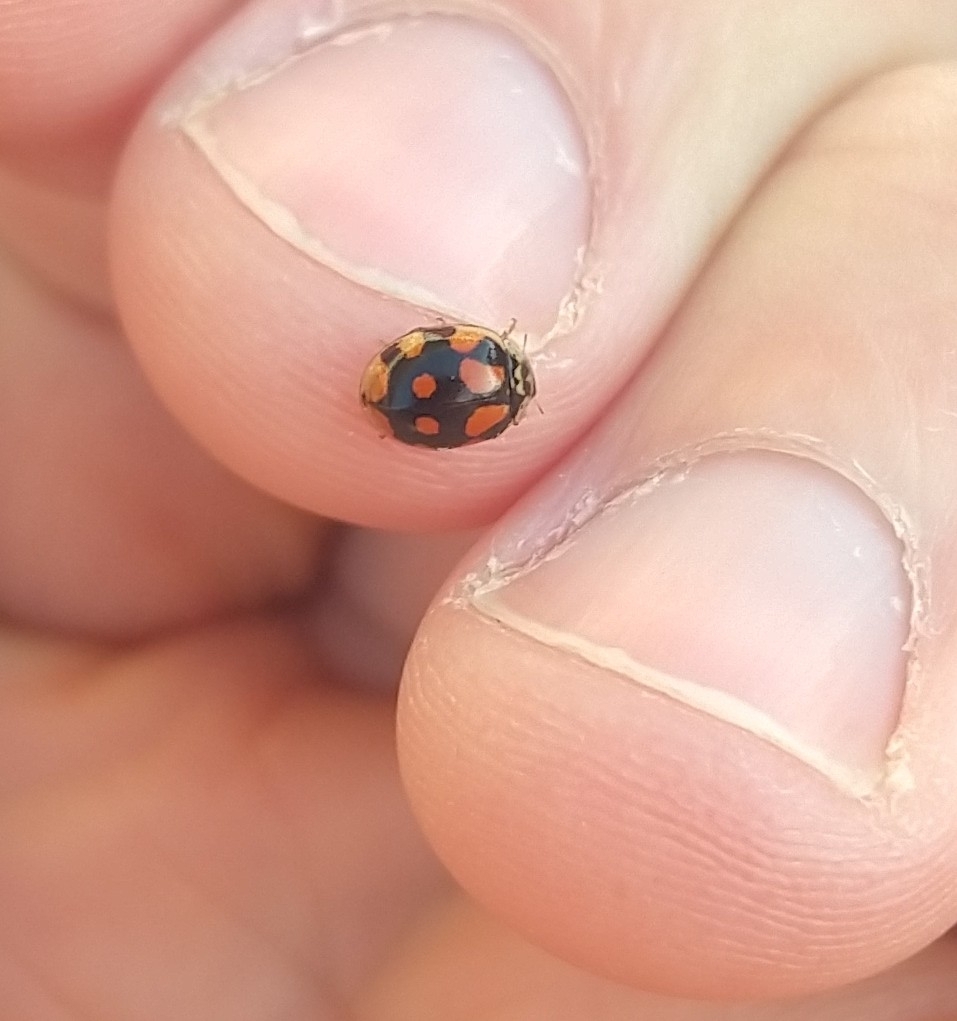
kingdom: Animalia
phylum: Arthropoda
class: Insecta
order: Coleoptera
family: Coccinellidae
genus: Adalia
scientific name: Adalia decempunctata
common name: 10-spot ladybird
